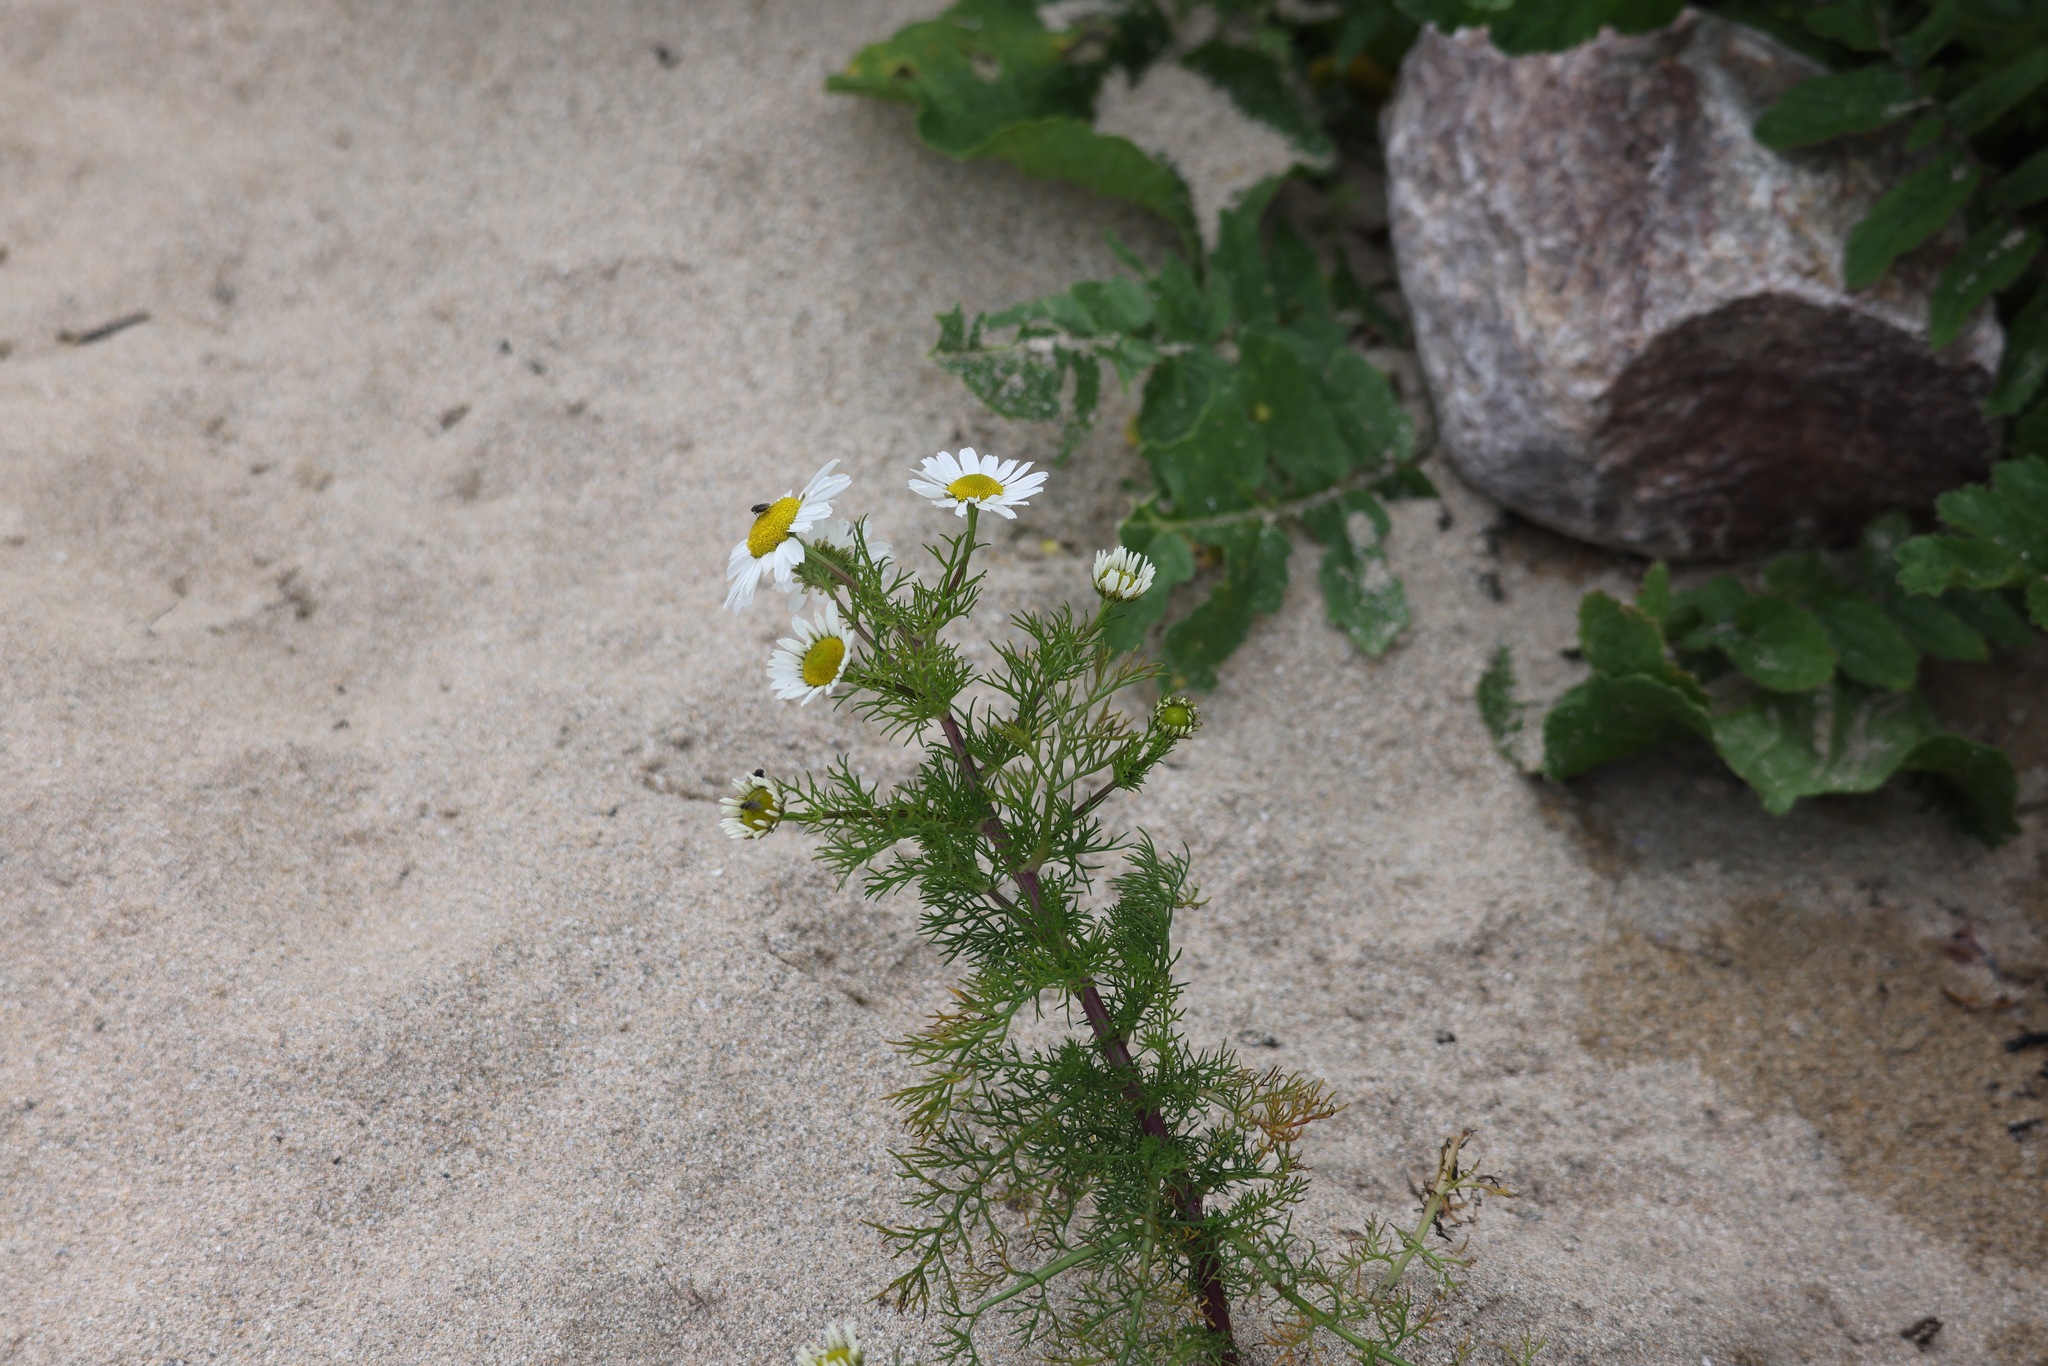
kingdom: Plantae
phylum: Tracheophyta
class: Magnoliopsida
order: Asterales
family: Asteraceae
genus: Tripleurospermum
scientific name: Tripleurospermum maritimum
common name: Sea mayweed
